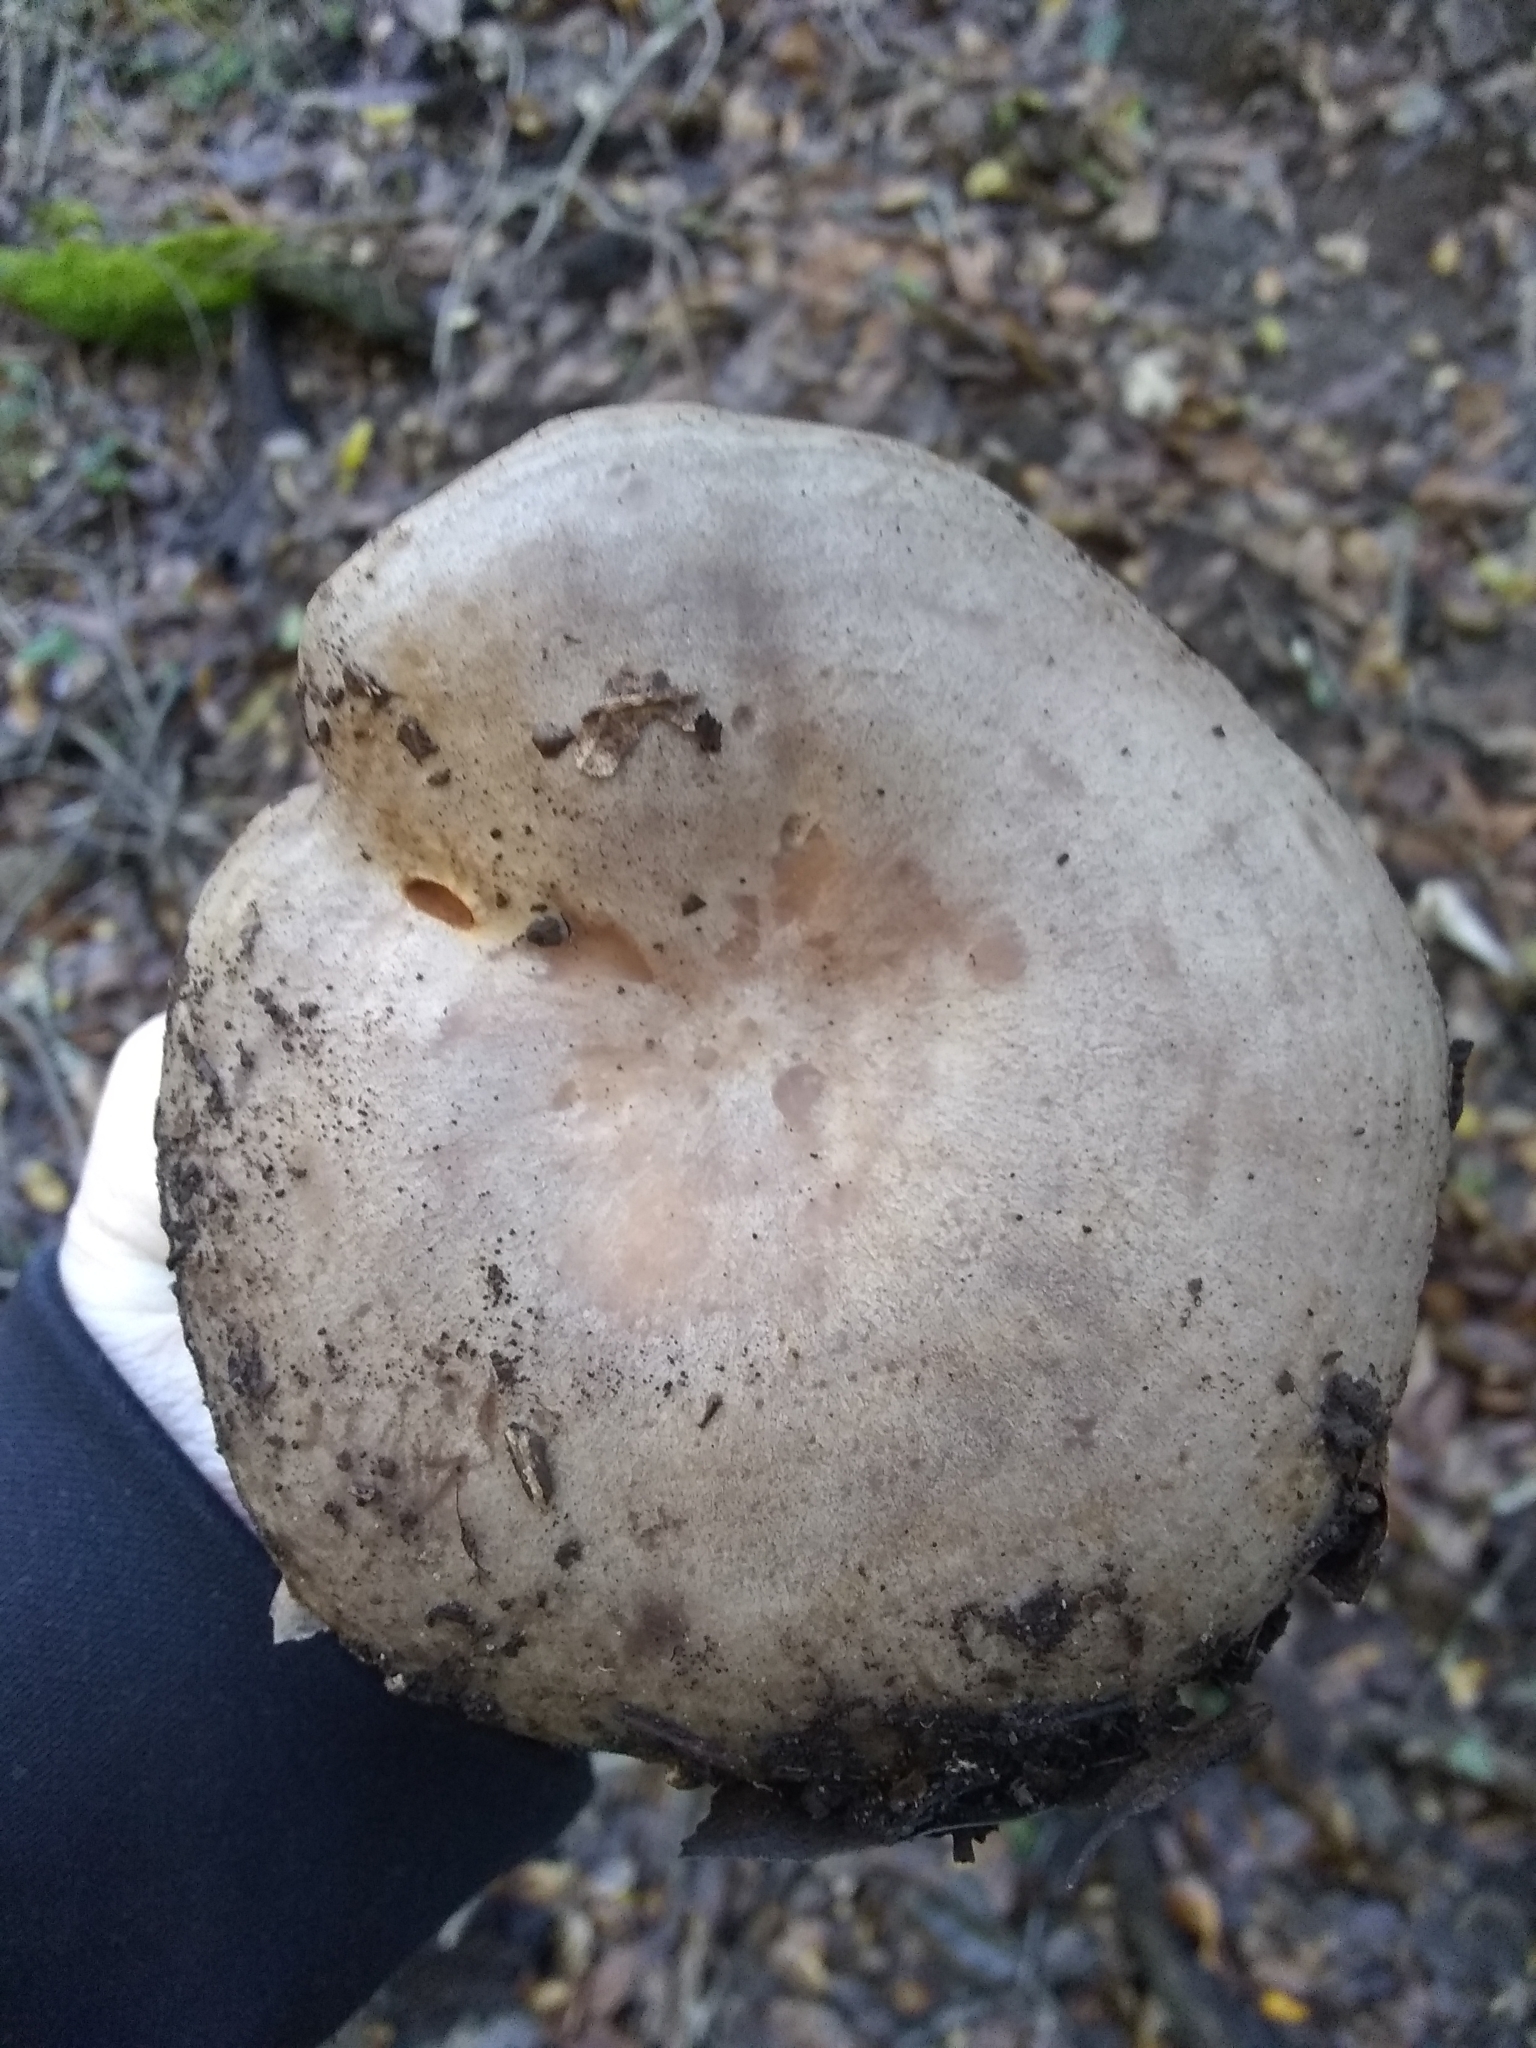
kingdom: Fungi
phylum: Basidiomycota
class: Agaricomycetes
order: Russulales
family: Russulaceae
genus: Lactarius
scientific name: Lactarius argillaceifolius
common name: Clay-gilled milkcap
